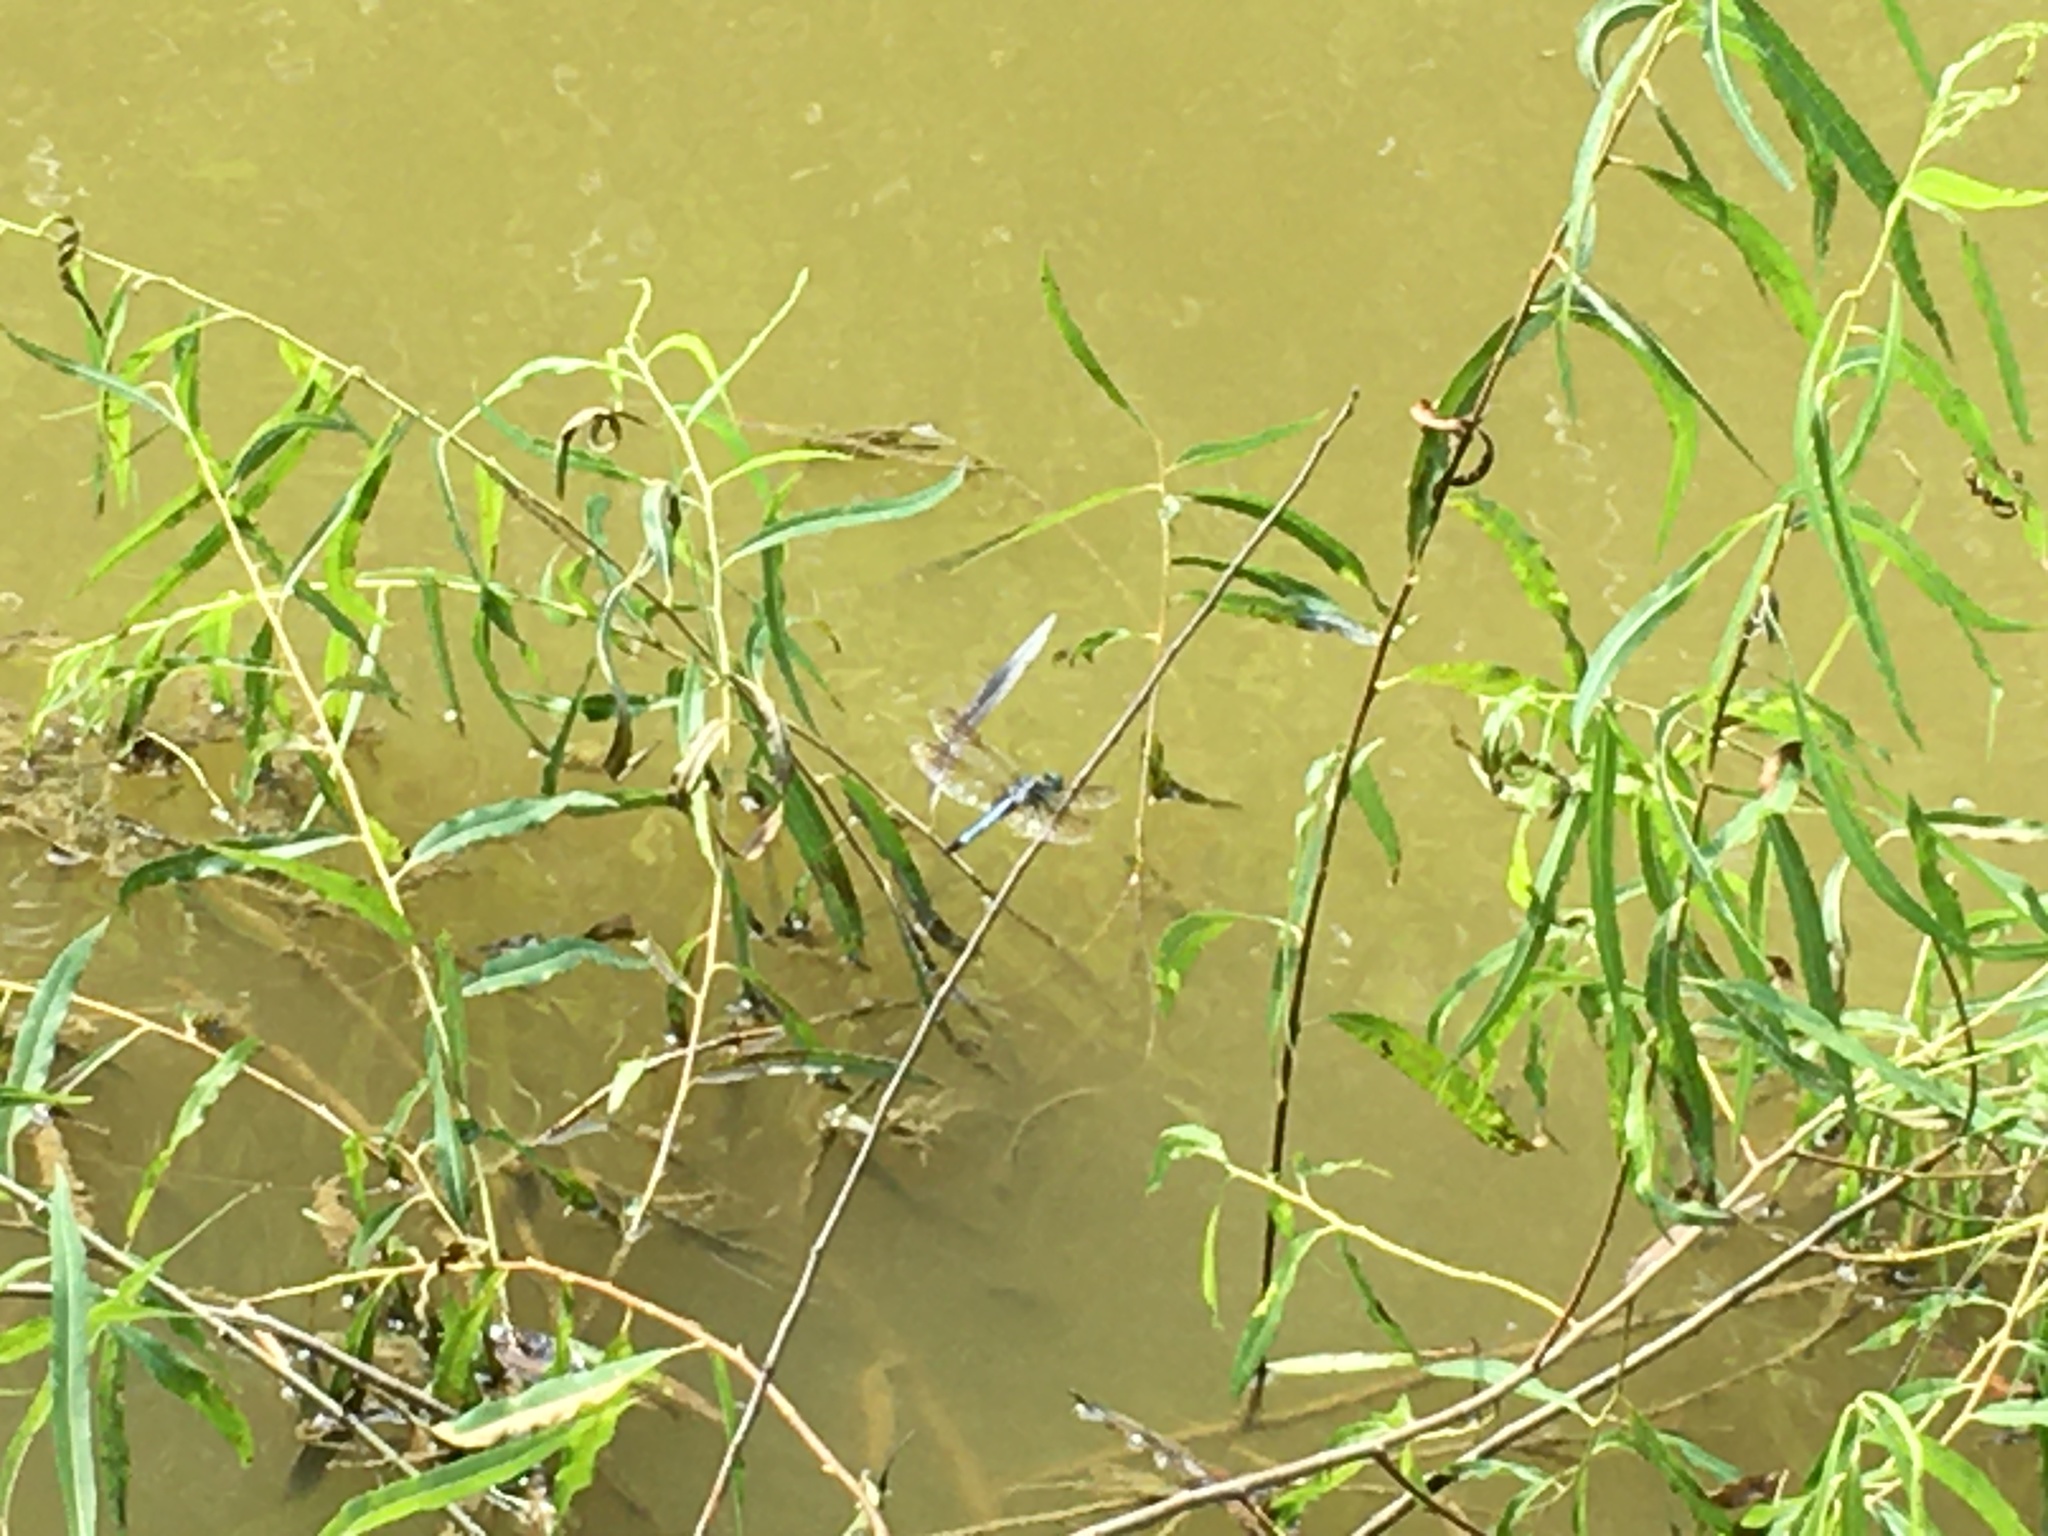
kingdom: Animalia
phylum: Arthropoda
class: Insecta
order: Odonata
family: Libellulidae
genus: Pachydiplax
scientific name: Pachydiplax longipennis
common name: Blue dasher
